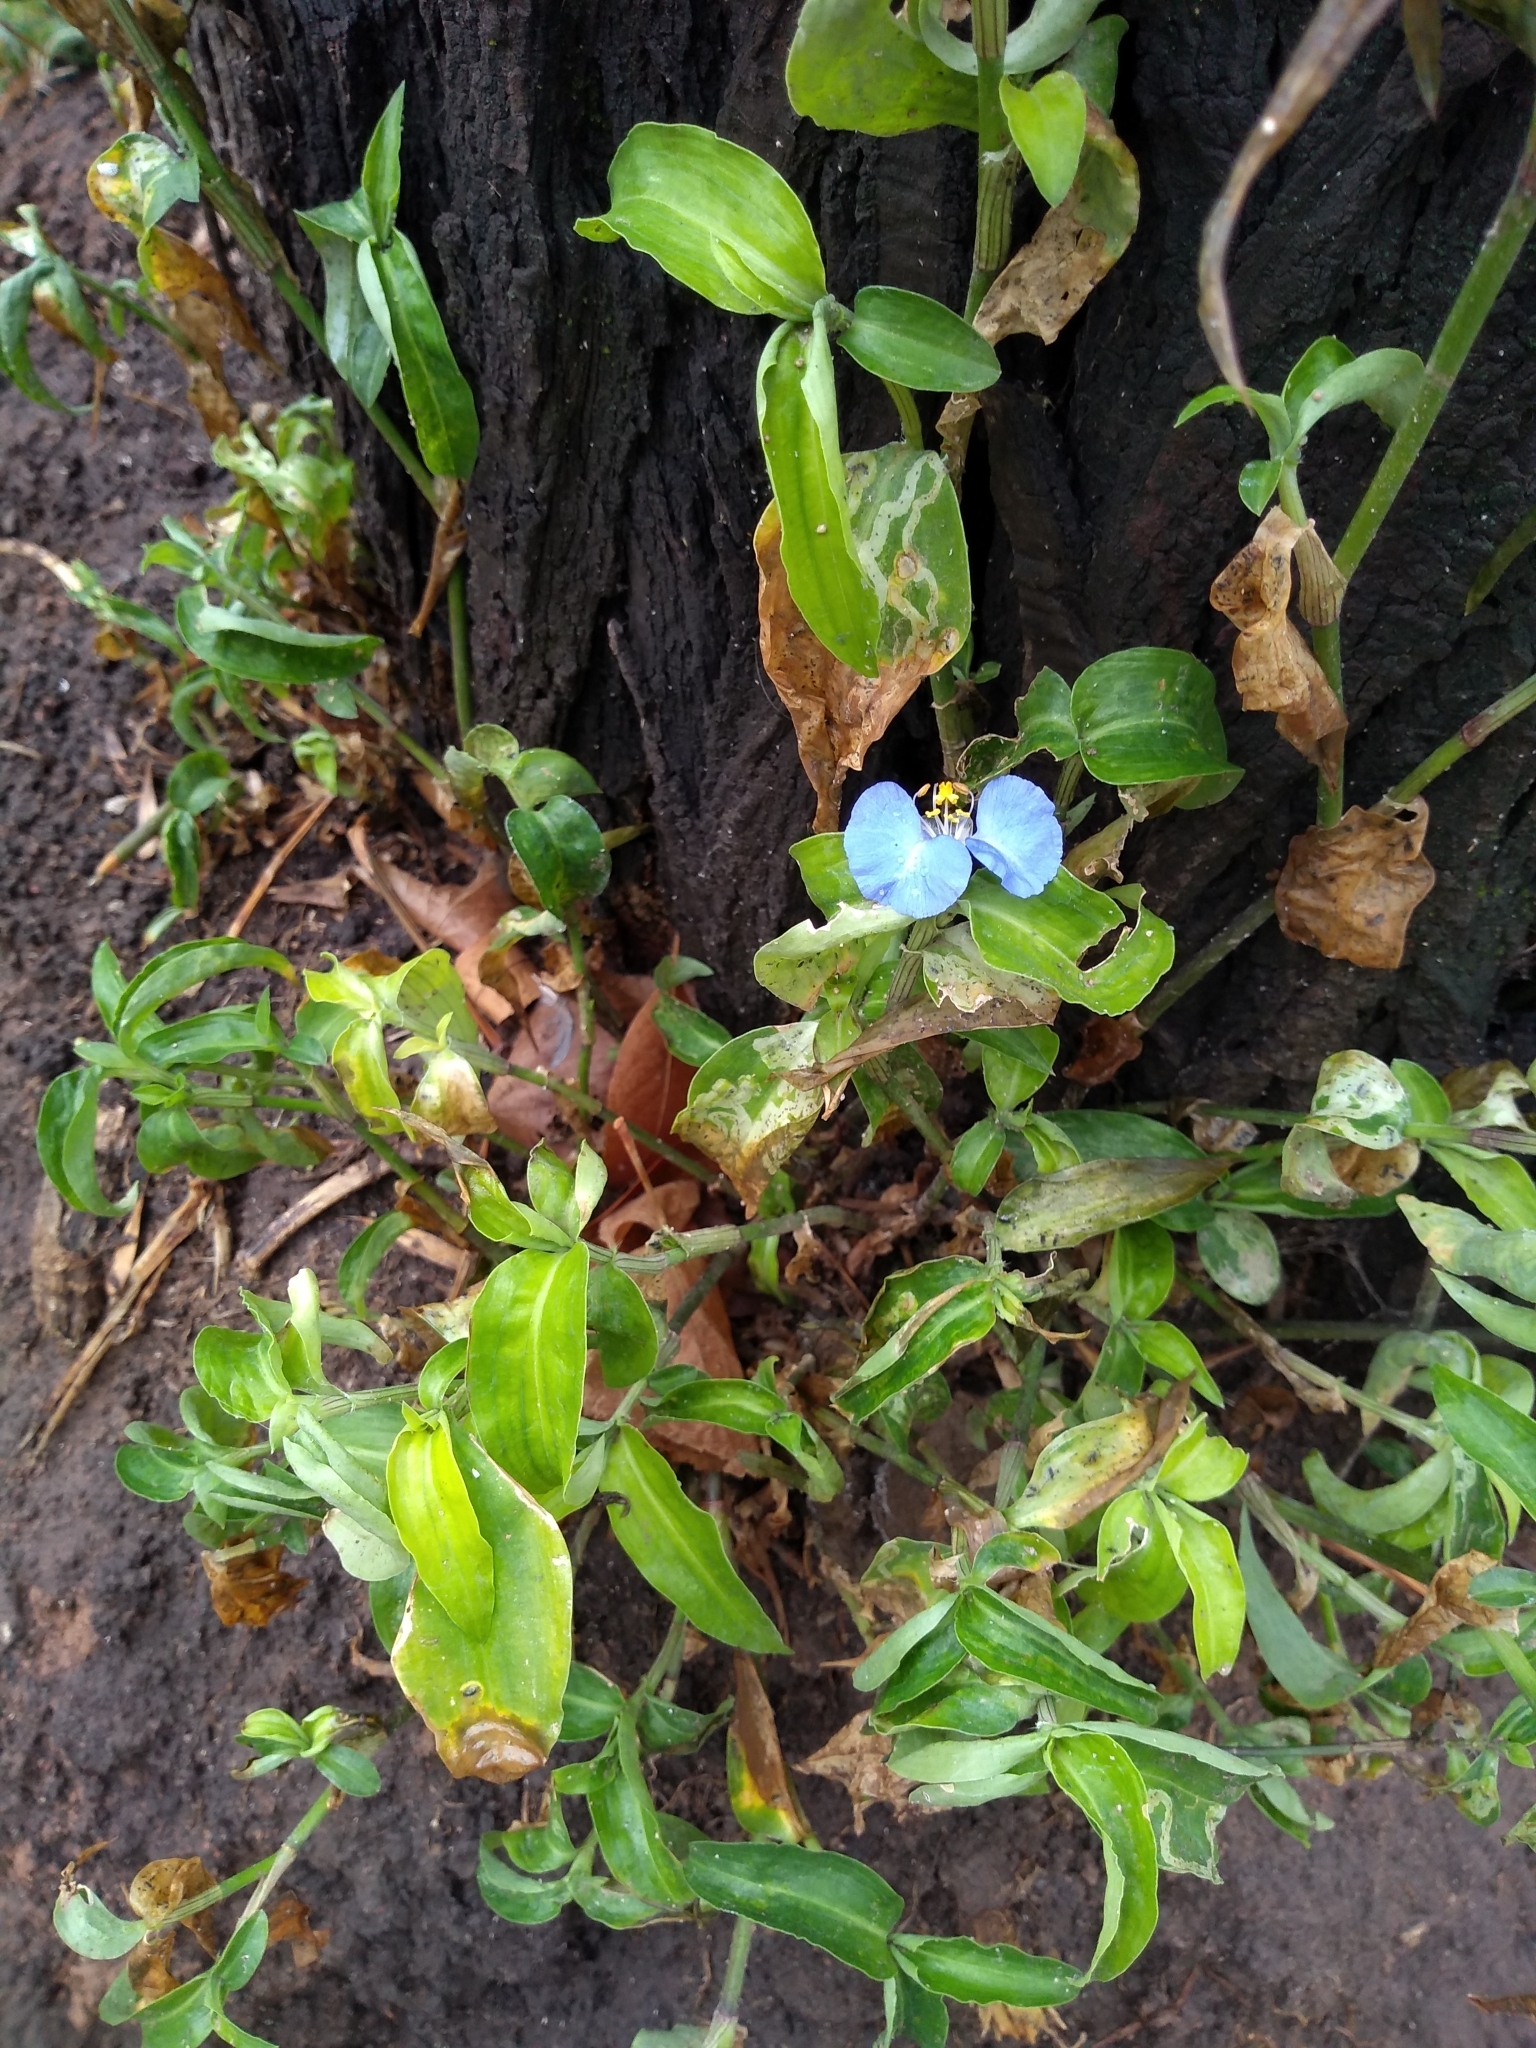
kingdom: Plantae
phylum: Tracheophyta
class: Liliopsida
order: Commelinales
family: Commelinaceae
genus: Commelina
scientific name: Commelina erecta
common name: Blousel blommetjie
